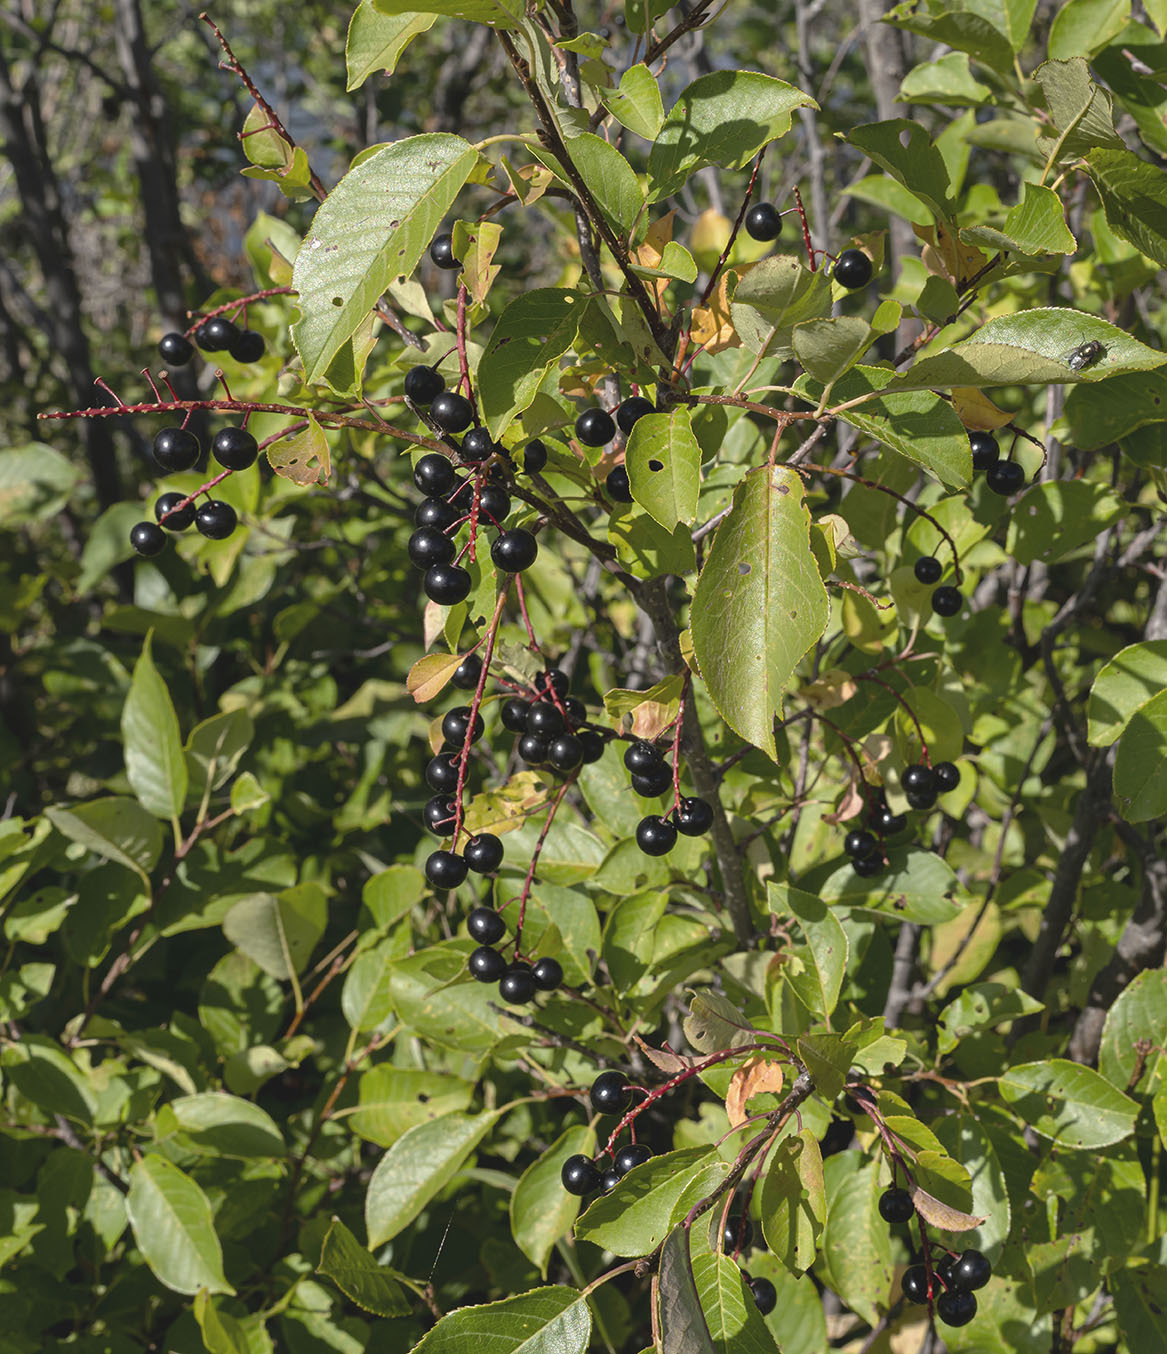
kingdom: Plantae
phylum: Tracheophyta
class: Magnoliopsida
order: Rosales
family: Rosaceae
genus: Prunus
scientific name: Prunus virginiana
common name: Chokecherry
